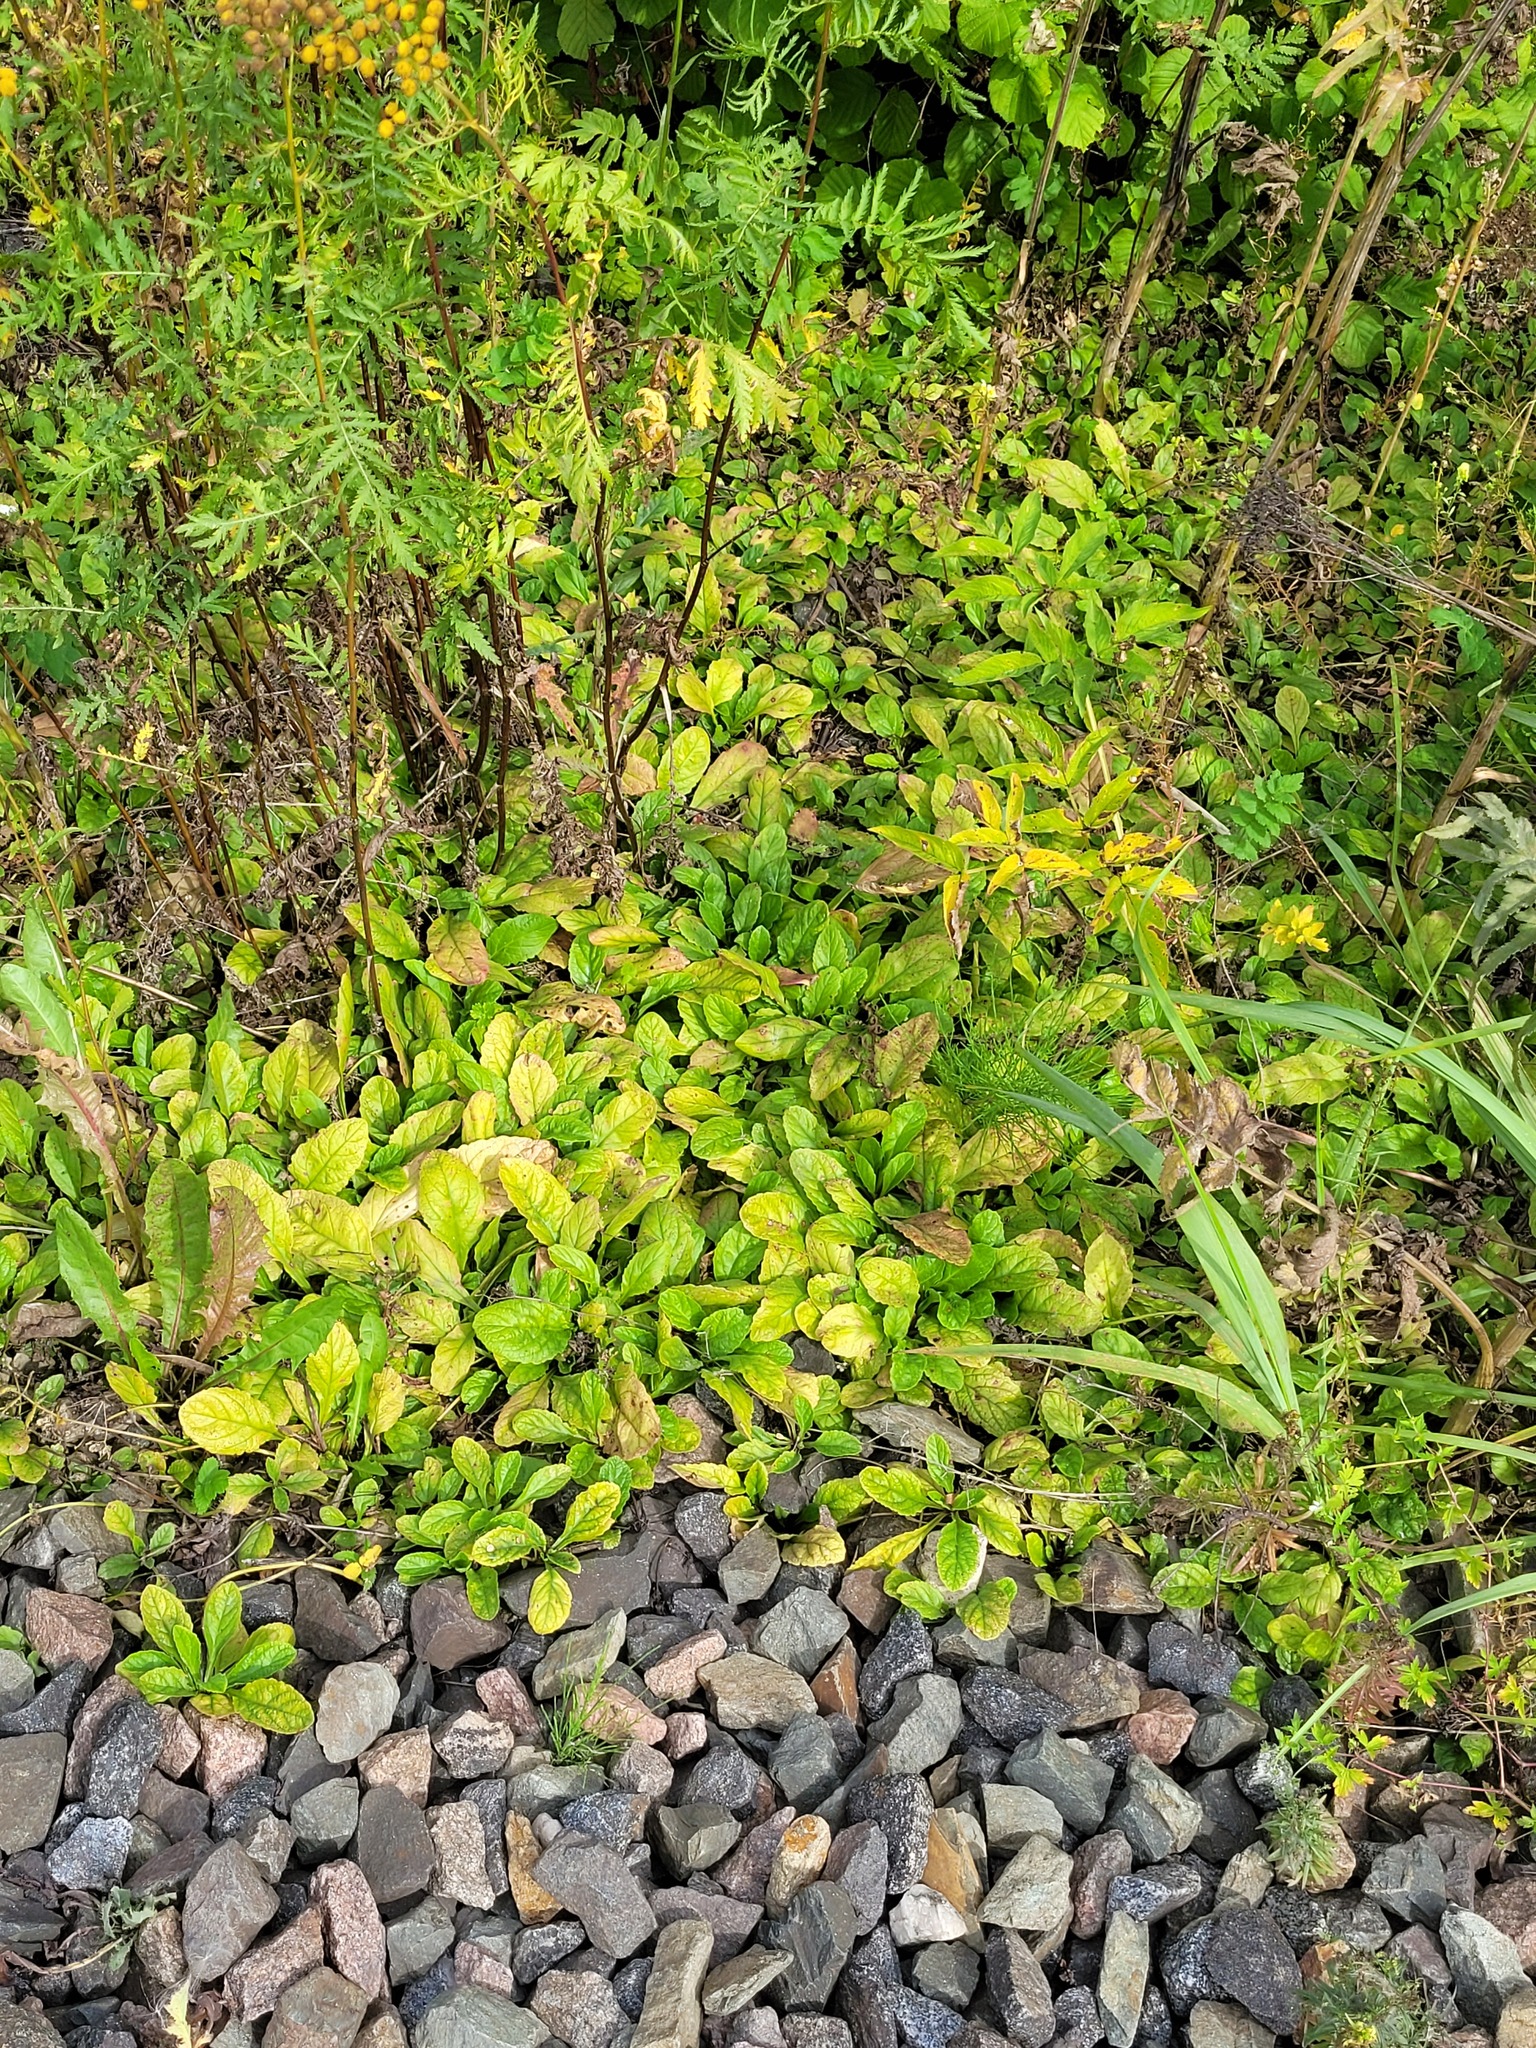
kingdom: Plantae
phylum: Tracheophyta
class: Magnoliopsida
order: Lamiales
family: Lamiaceae
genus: Ajuga
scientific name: Ajuga reptans
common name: Bugle
